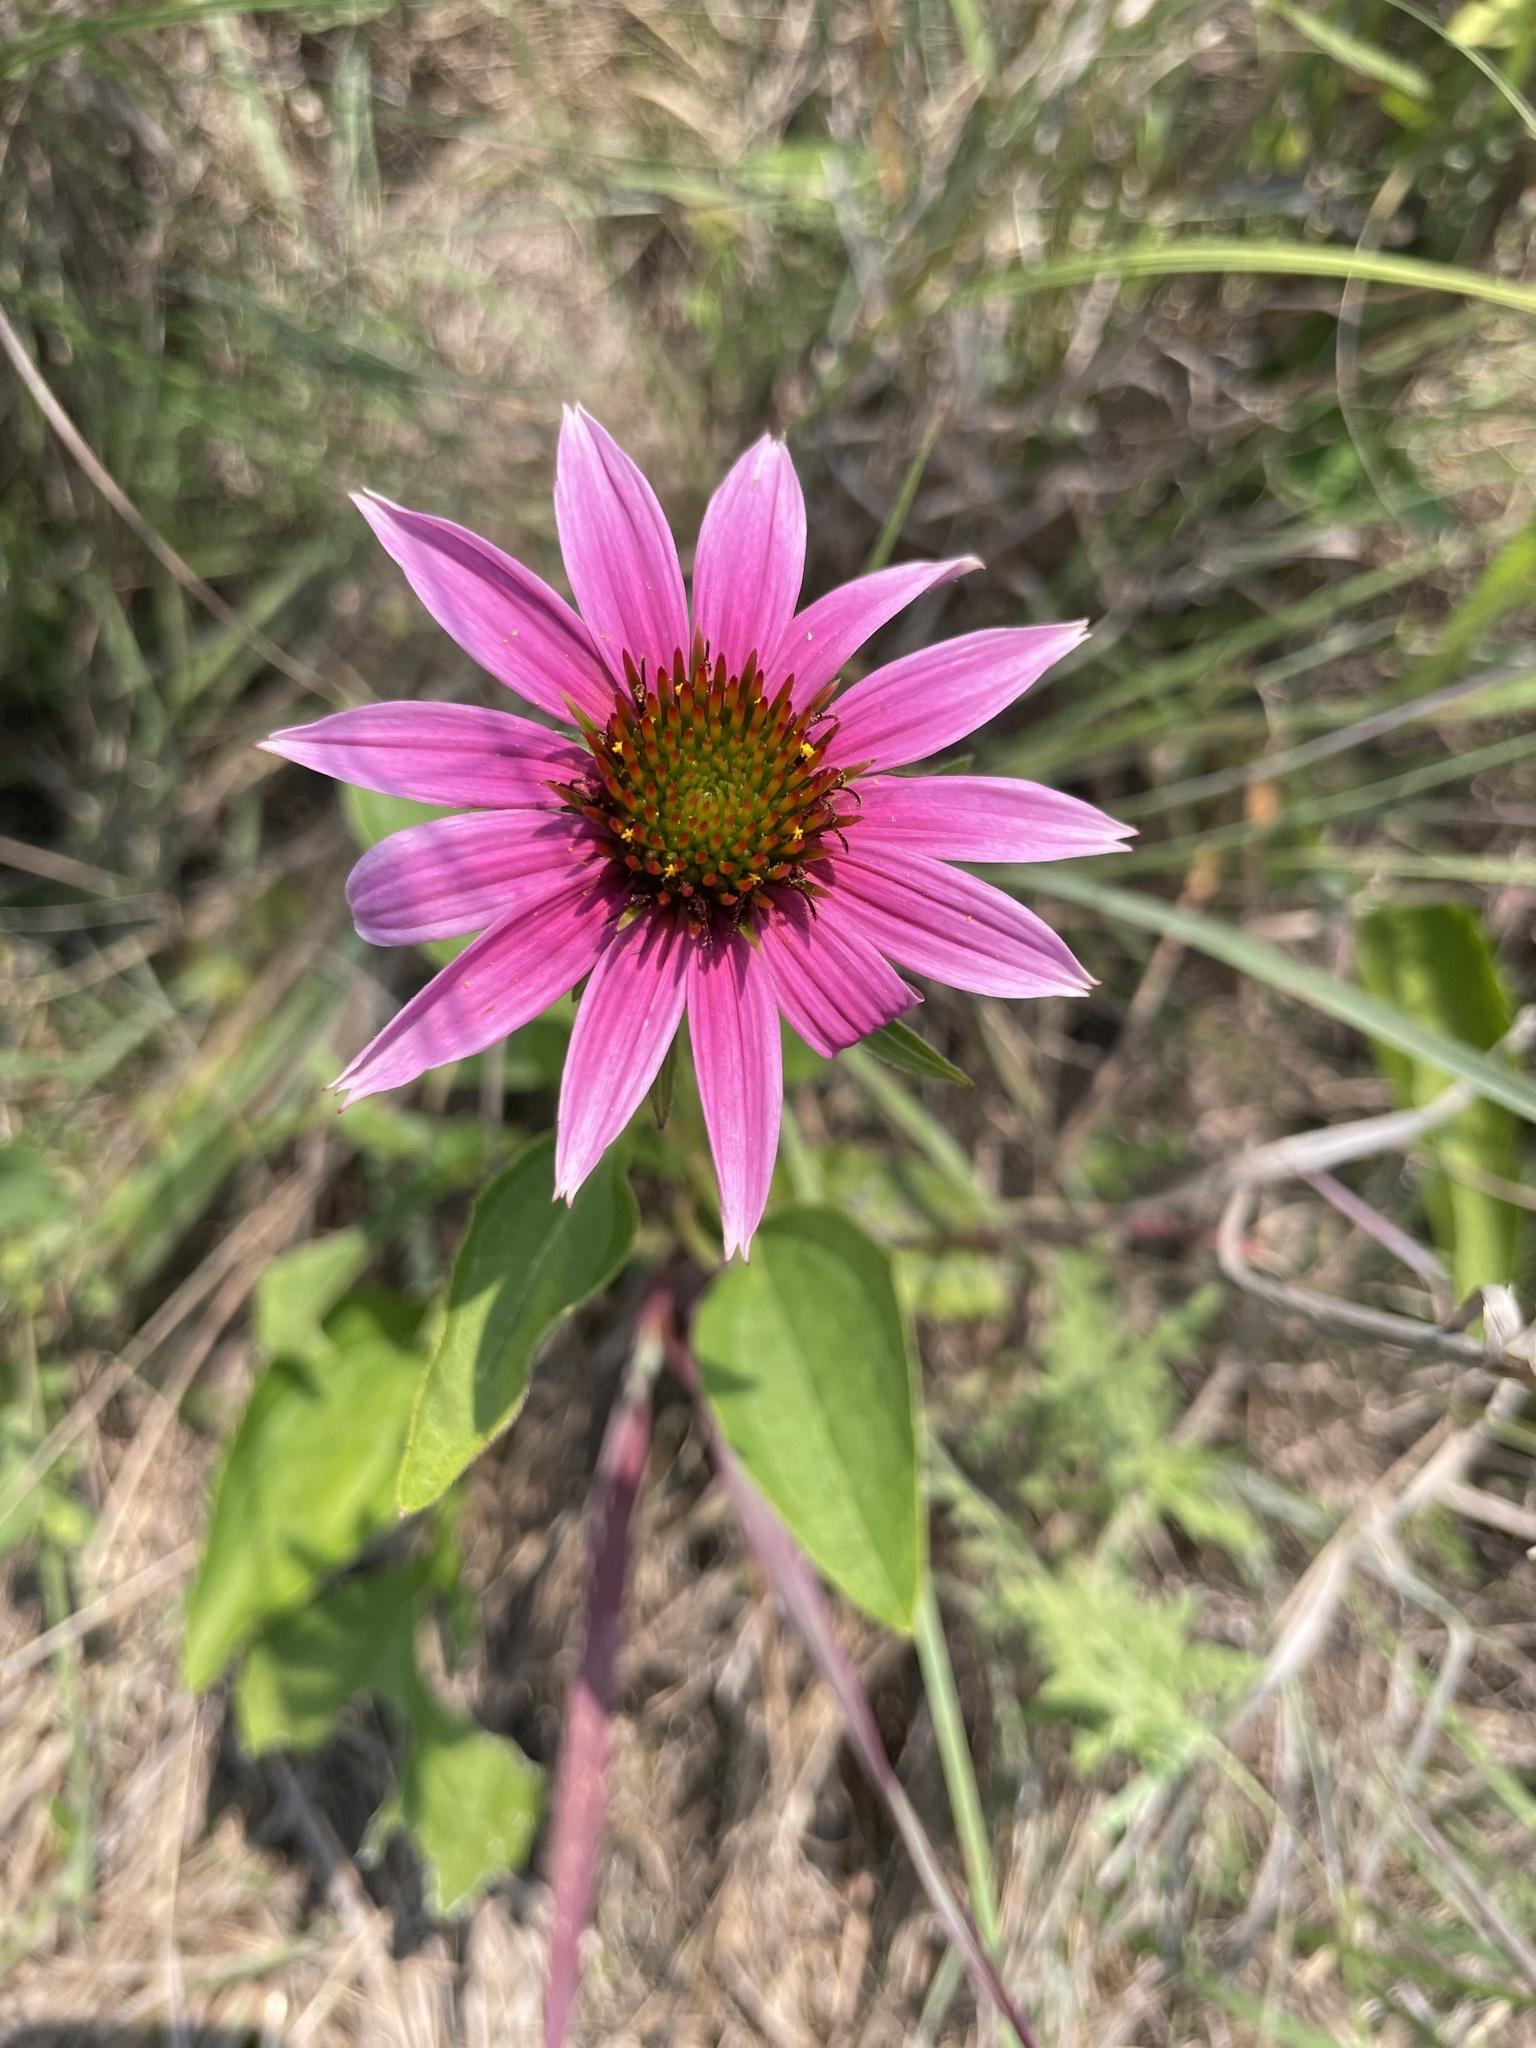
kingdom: Plantae
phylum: Tracheophyta
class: Magnoliopsida
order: Asterales
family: Asteraceae
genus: Echinacea
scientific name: Echinacea purpurea
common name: Broad-leaved purple coneflower
